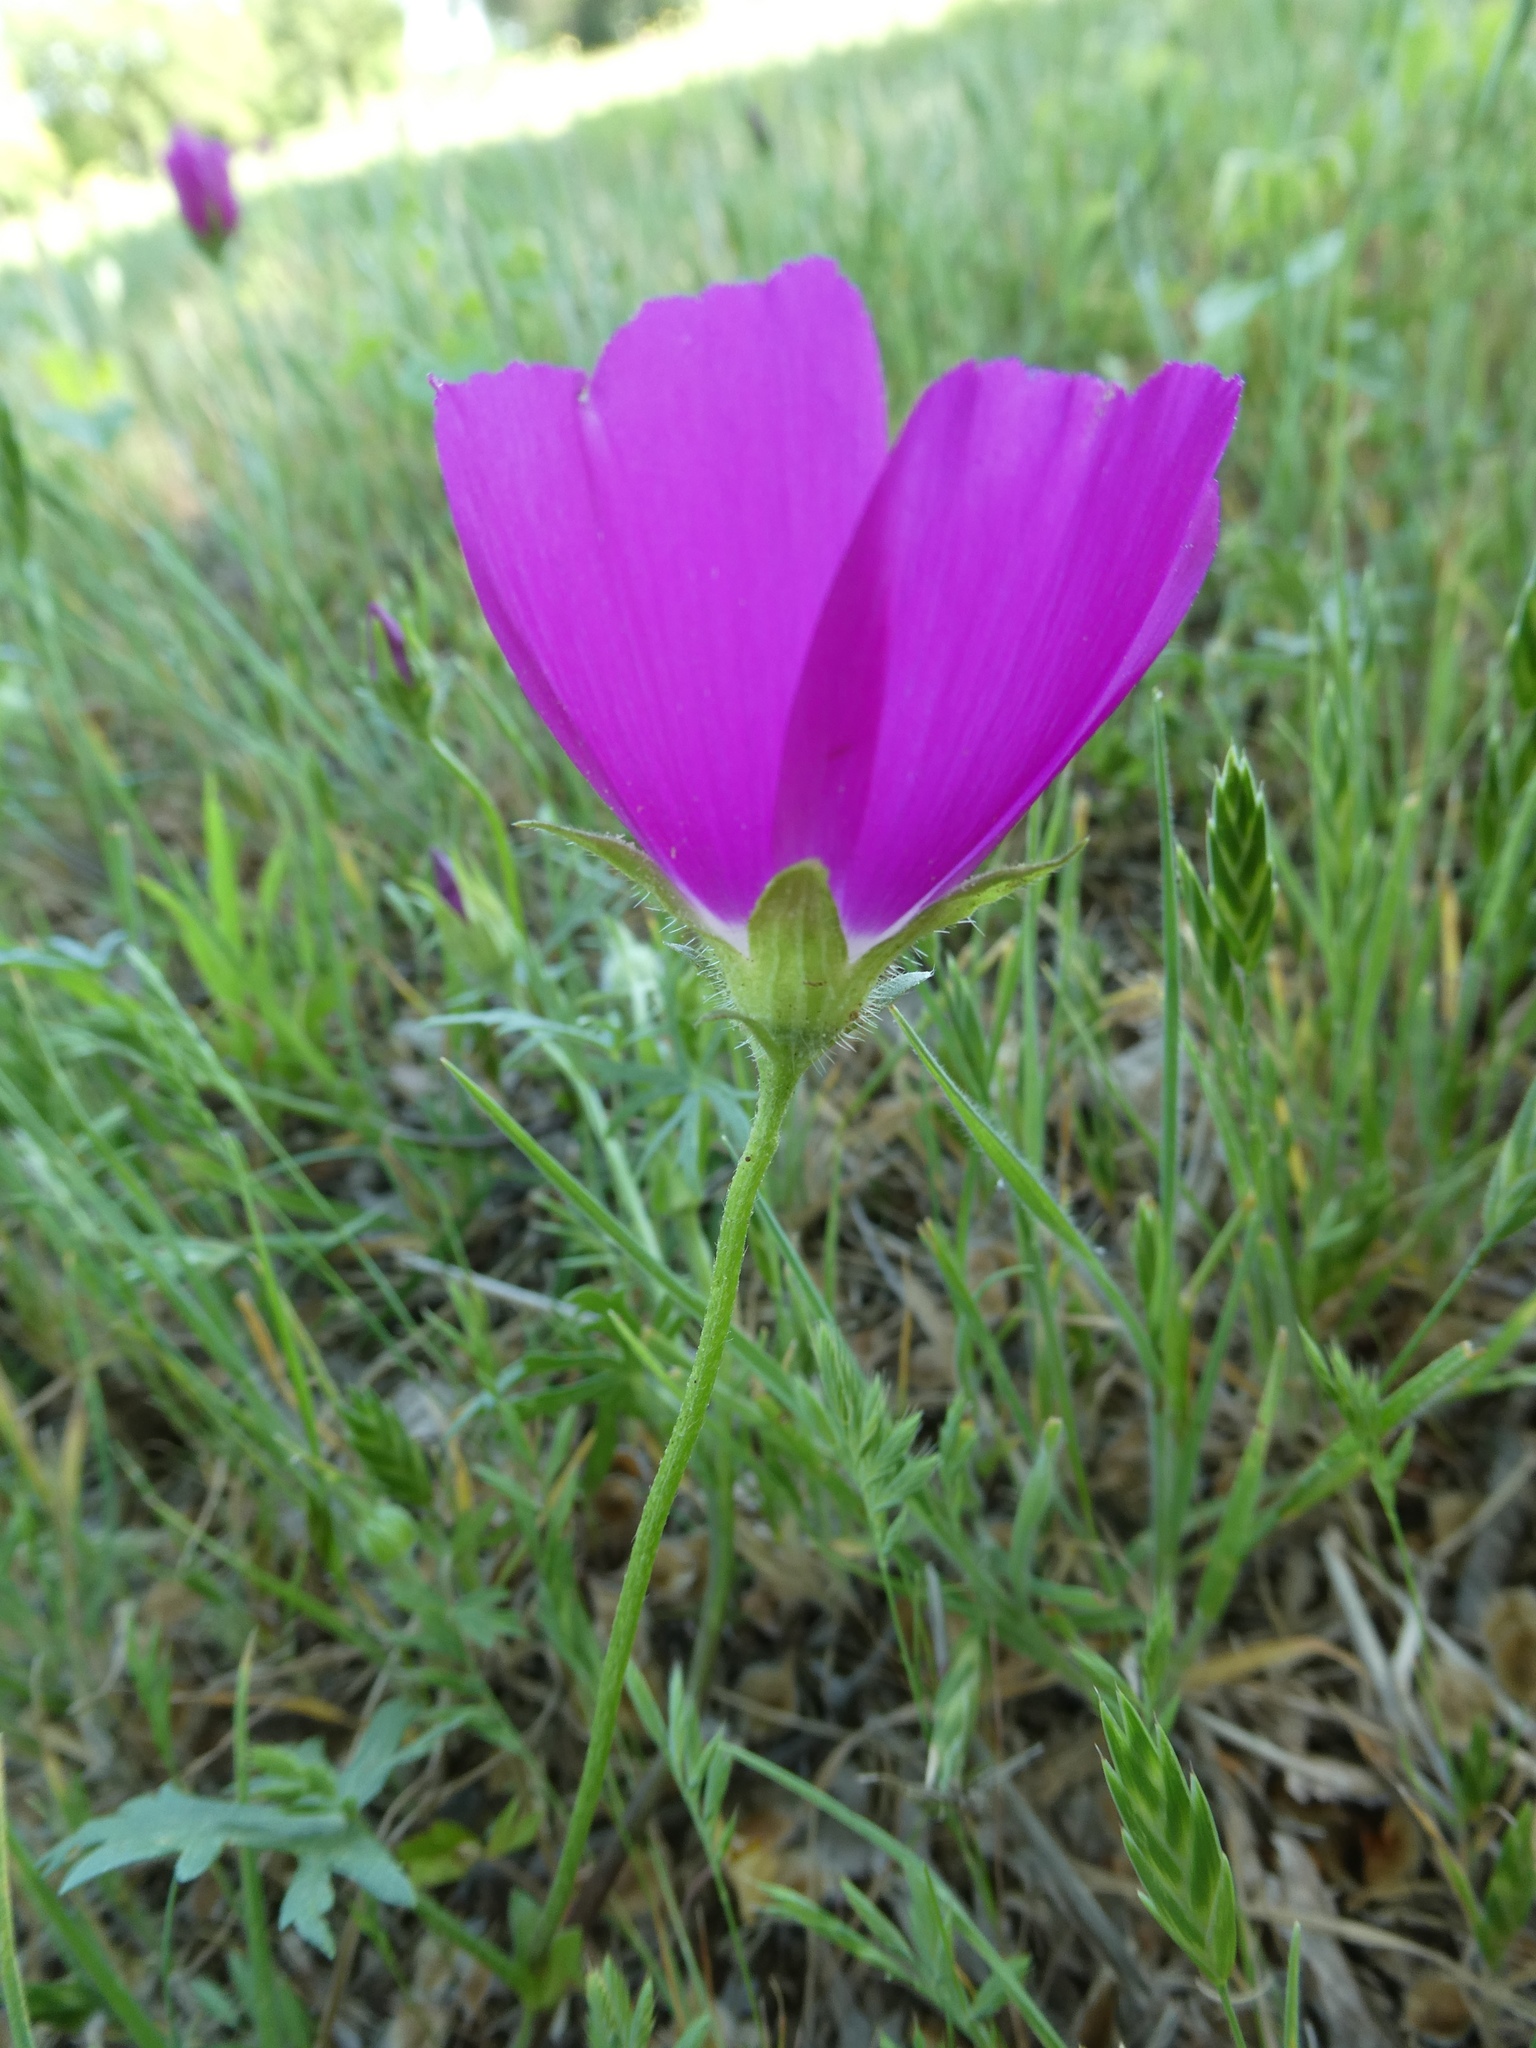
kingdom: Plantae
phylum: Tracheophyta
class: Magnoliopsida
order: Malvales
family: Malvaceae
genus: Callirhoe
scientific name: Callirhoe involucrata
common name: Purple poppy-mallow
